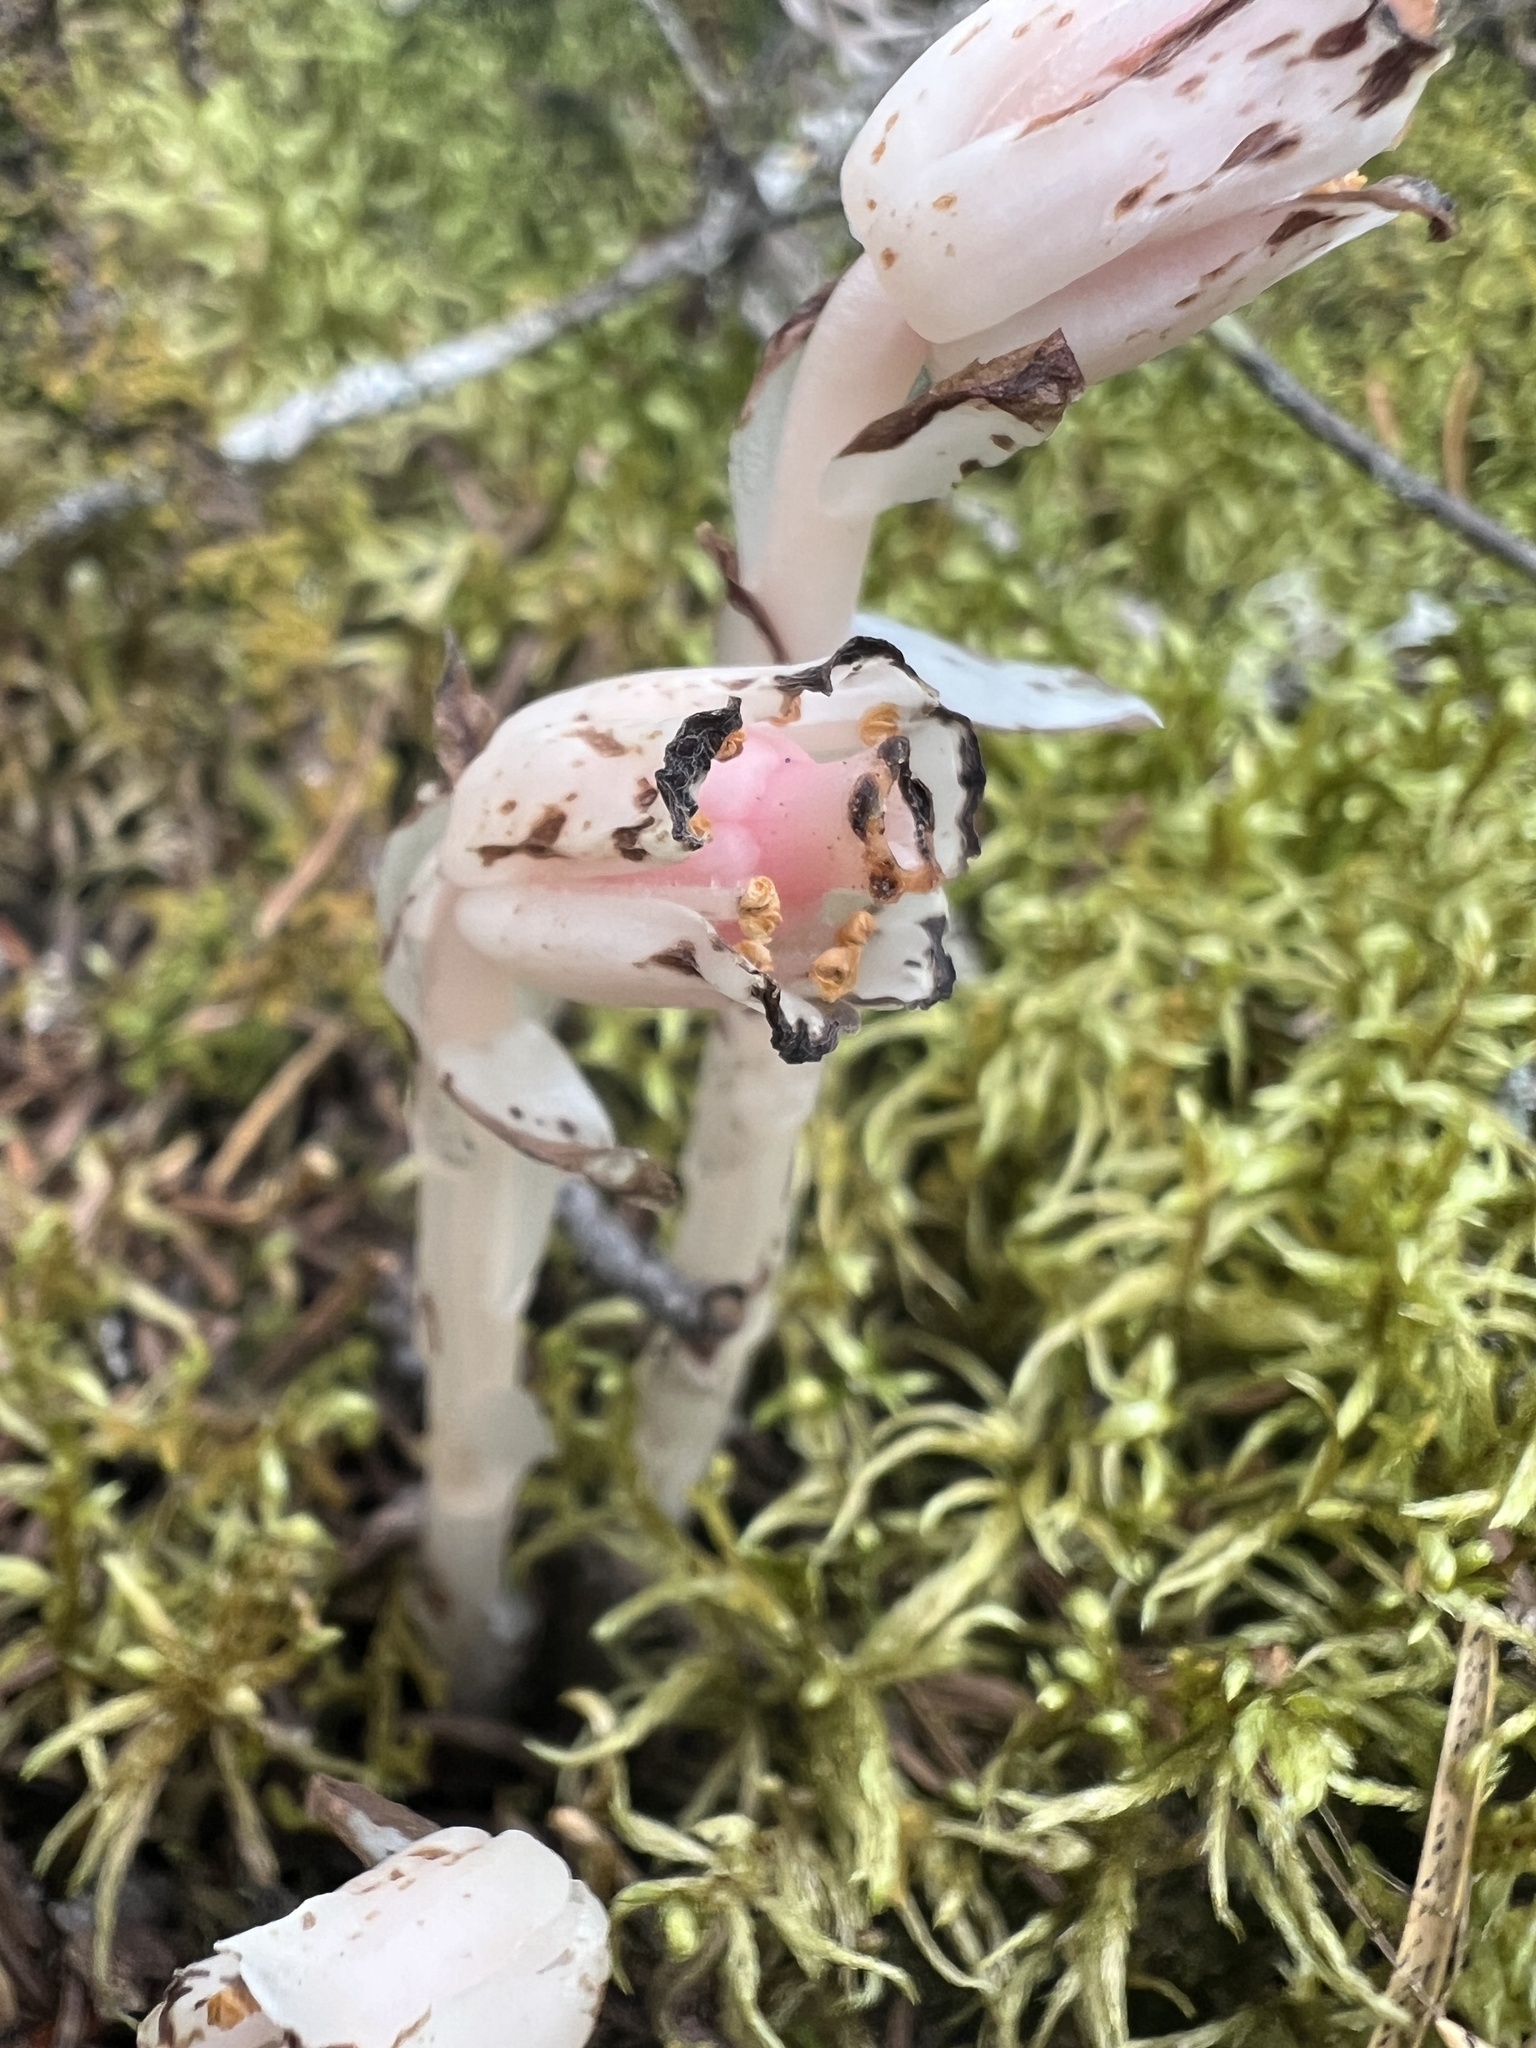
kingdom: Plantae
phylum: Tracheophyta
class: Magnoliopsida
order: Ericales
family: Ericaceae
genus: Monotropa
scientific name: Monotropa uniflora
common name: Convulsion root
